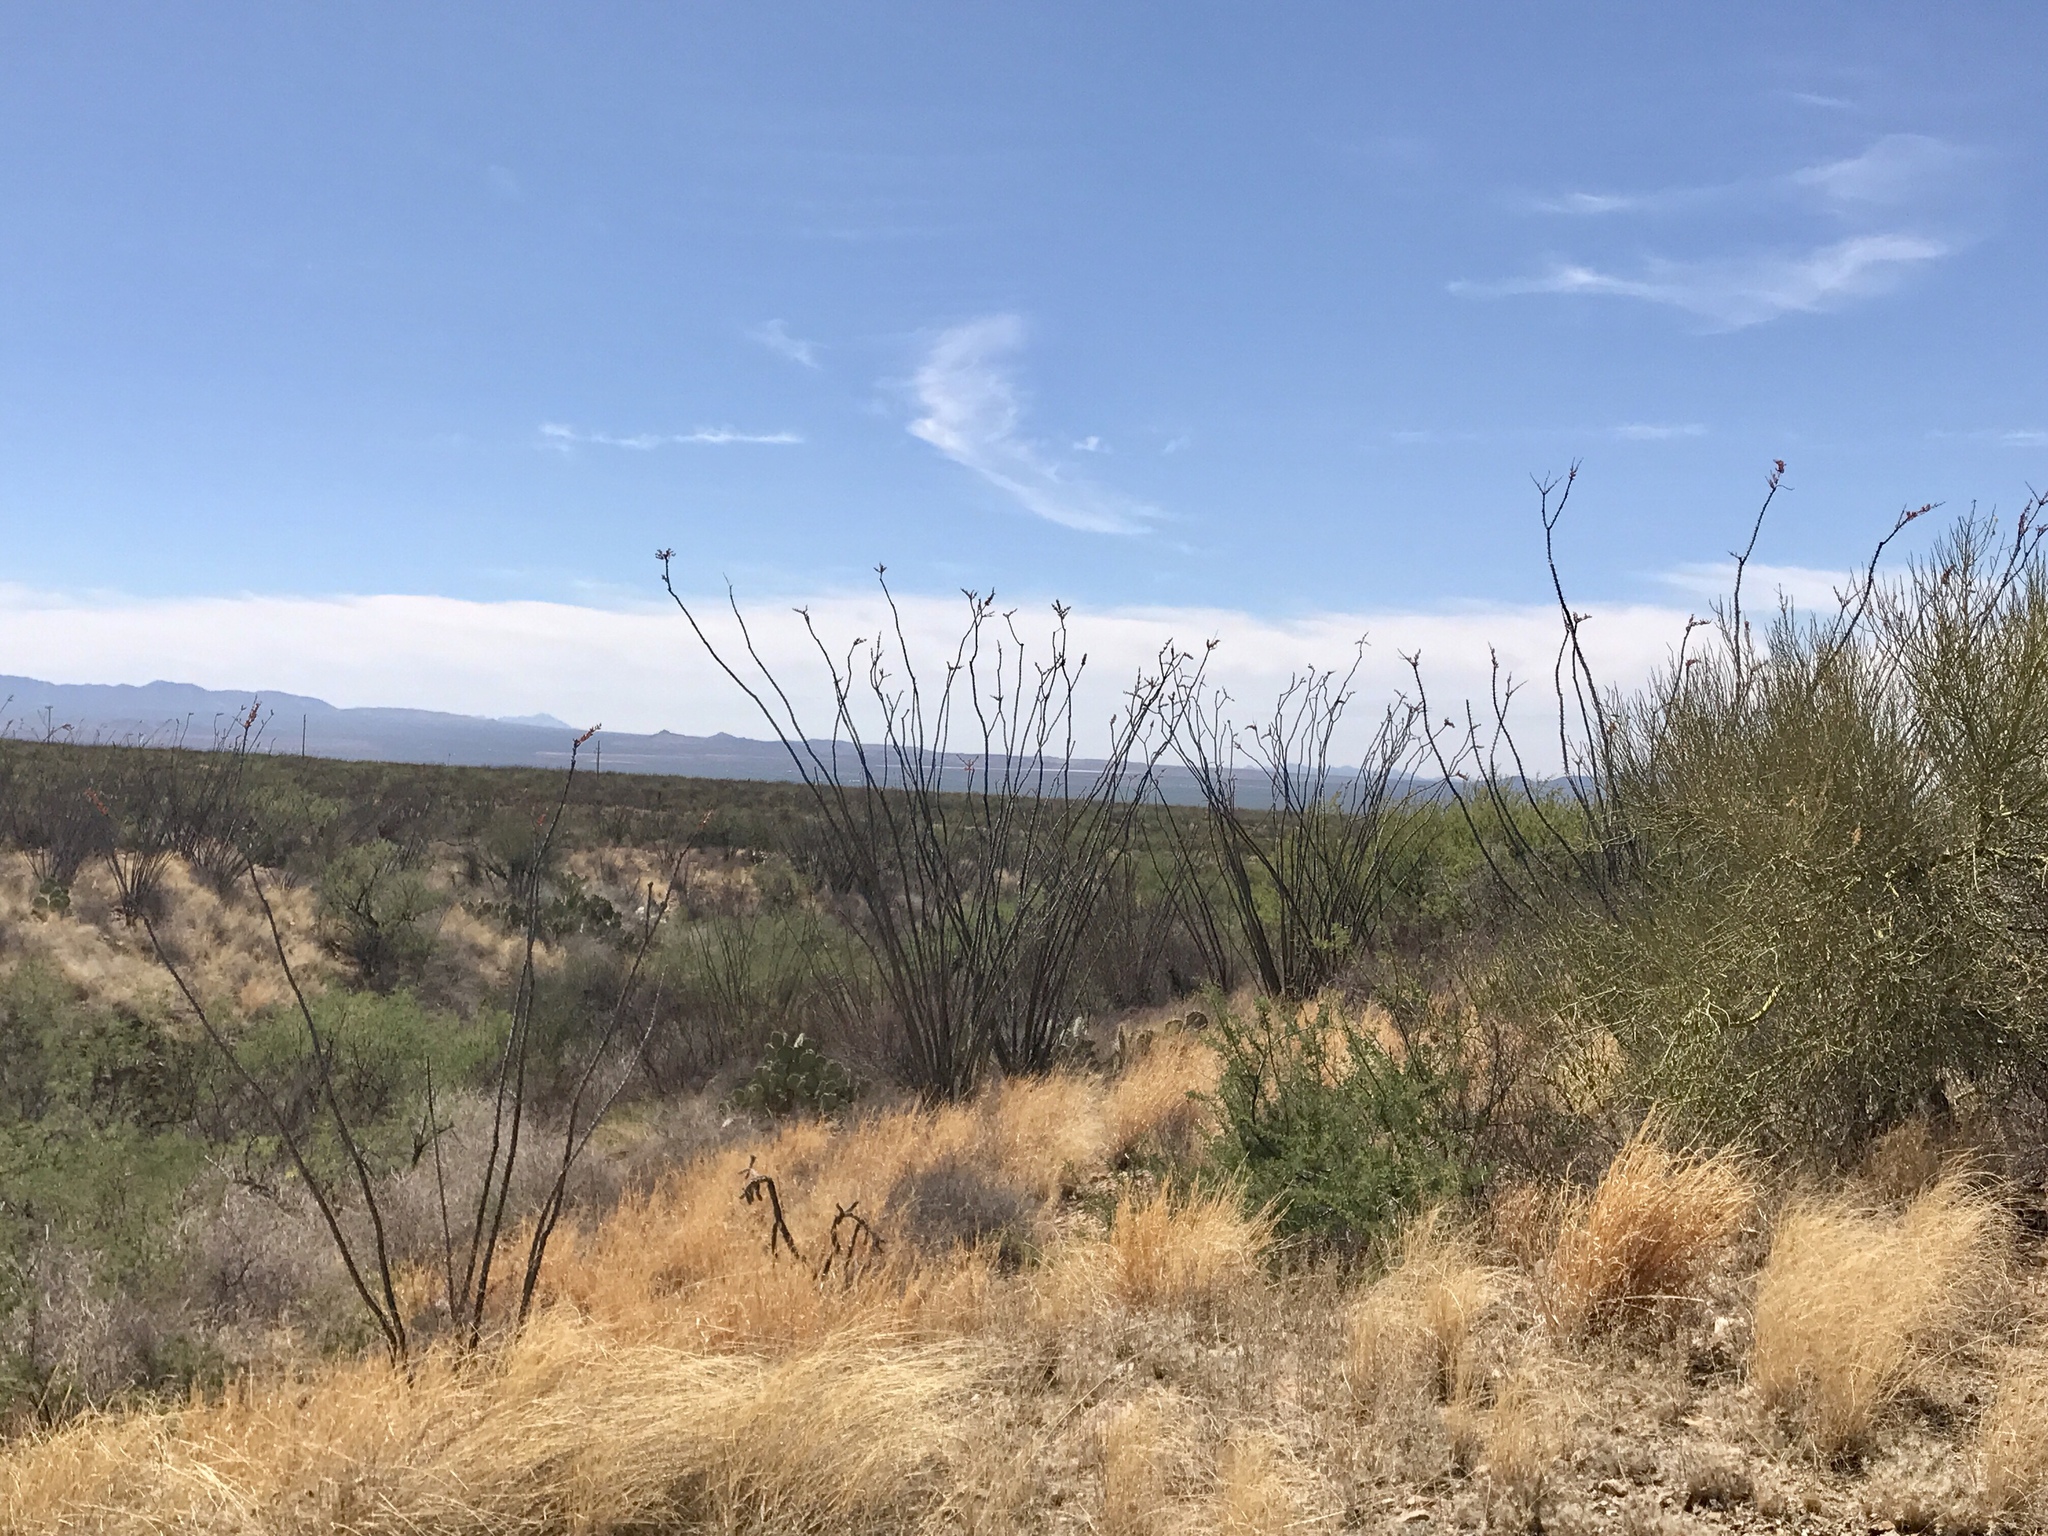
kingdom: Plantae
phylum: Tracheophyta
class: Magnoliopsida
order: Ericales
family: Fouquieriaceae
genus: Fouquieria
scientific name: Fouquieria splendens
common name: Vine-cactus
